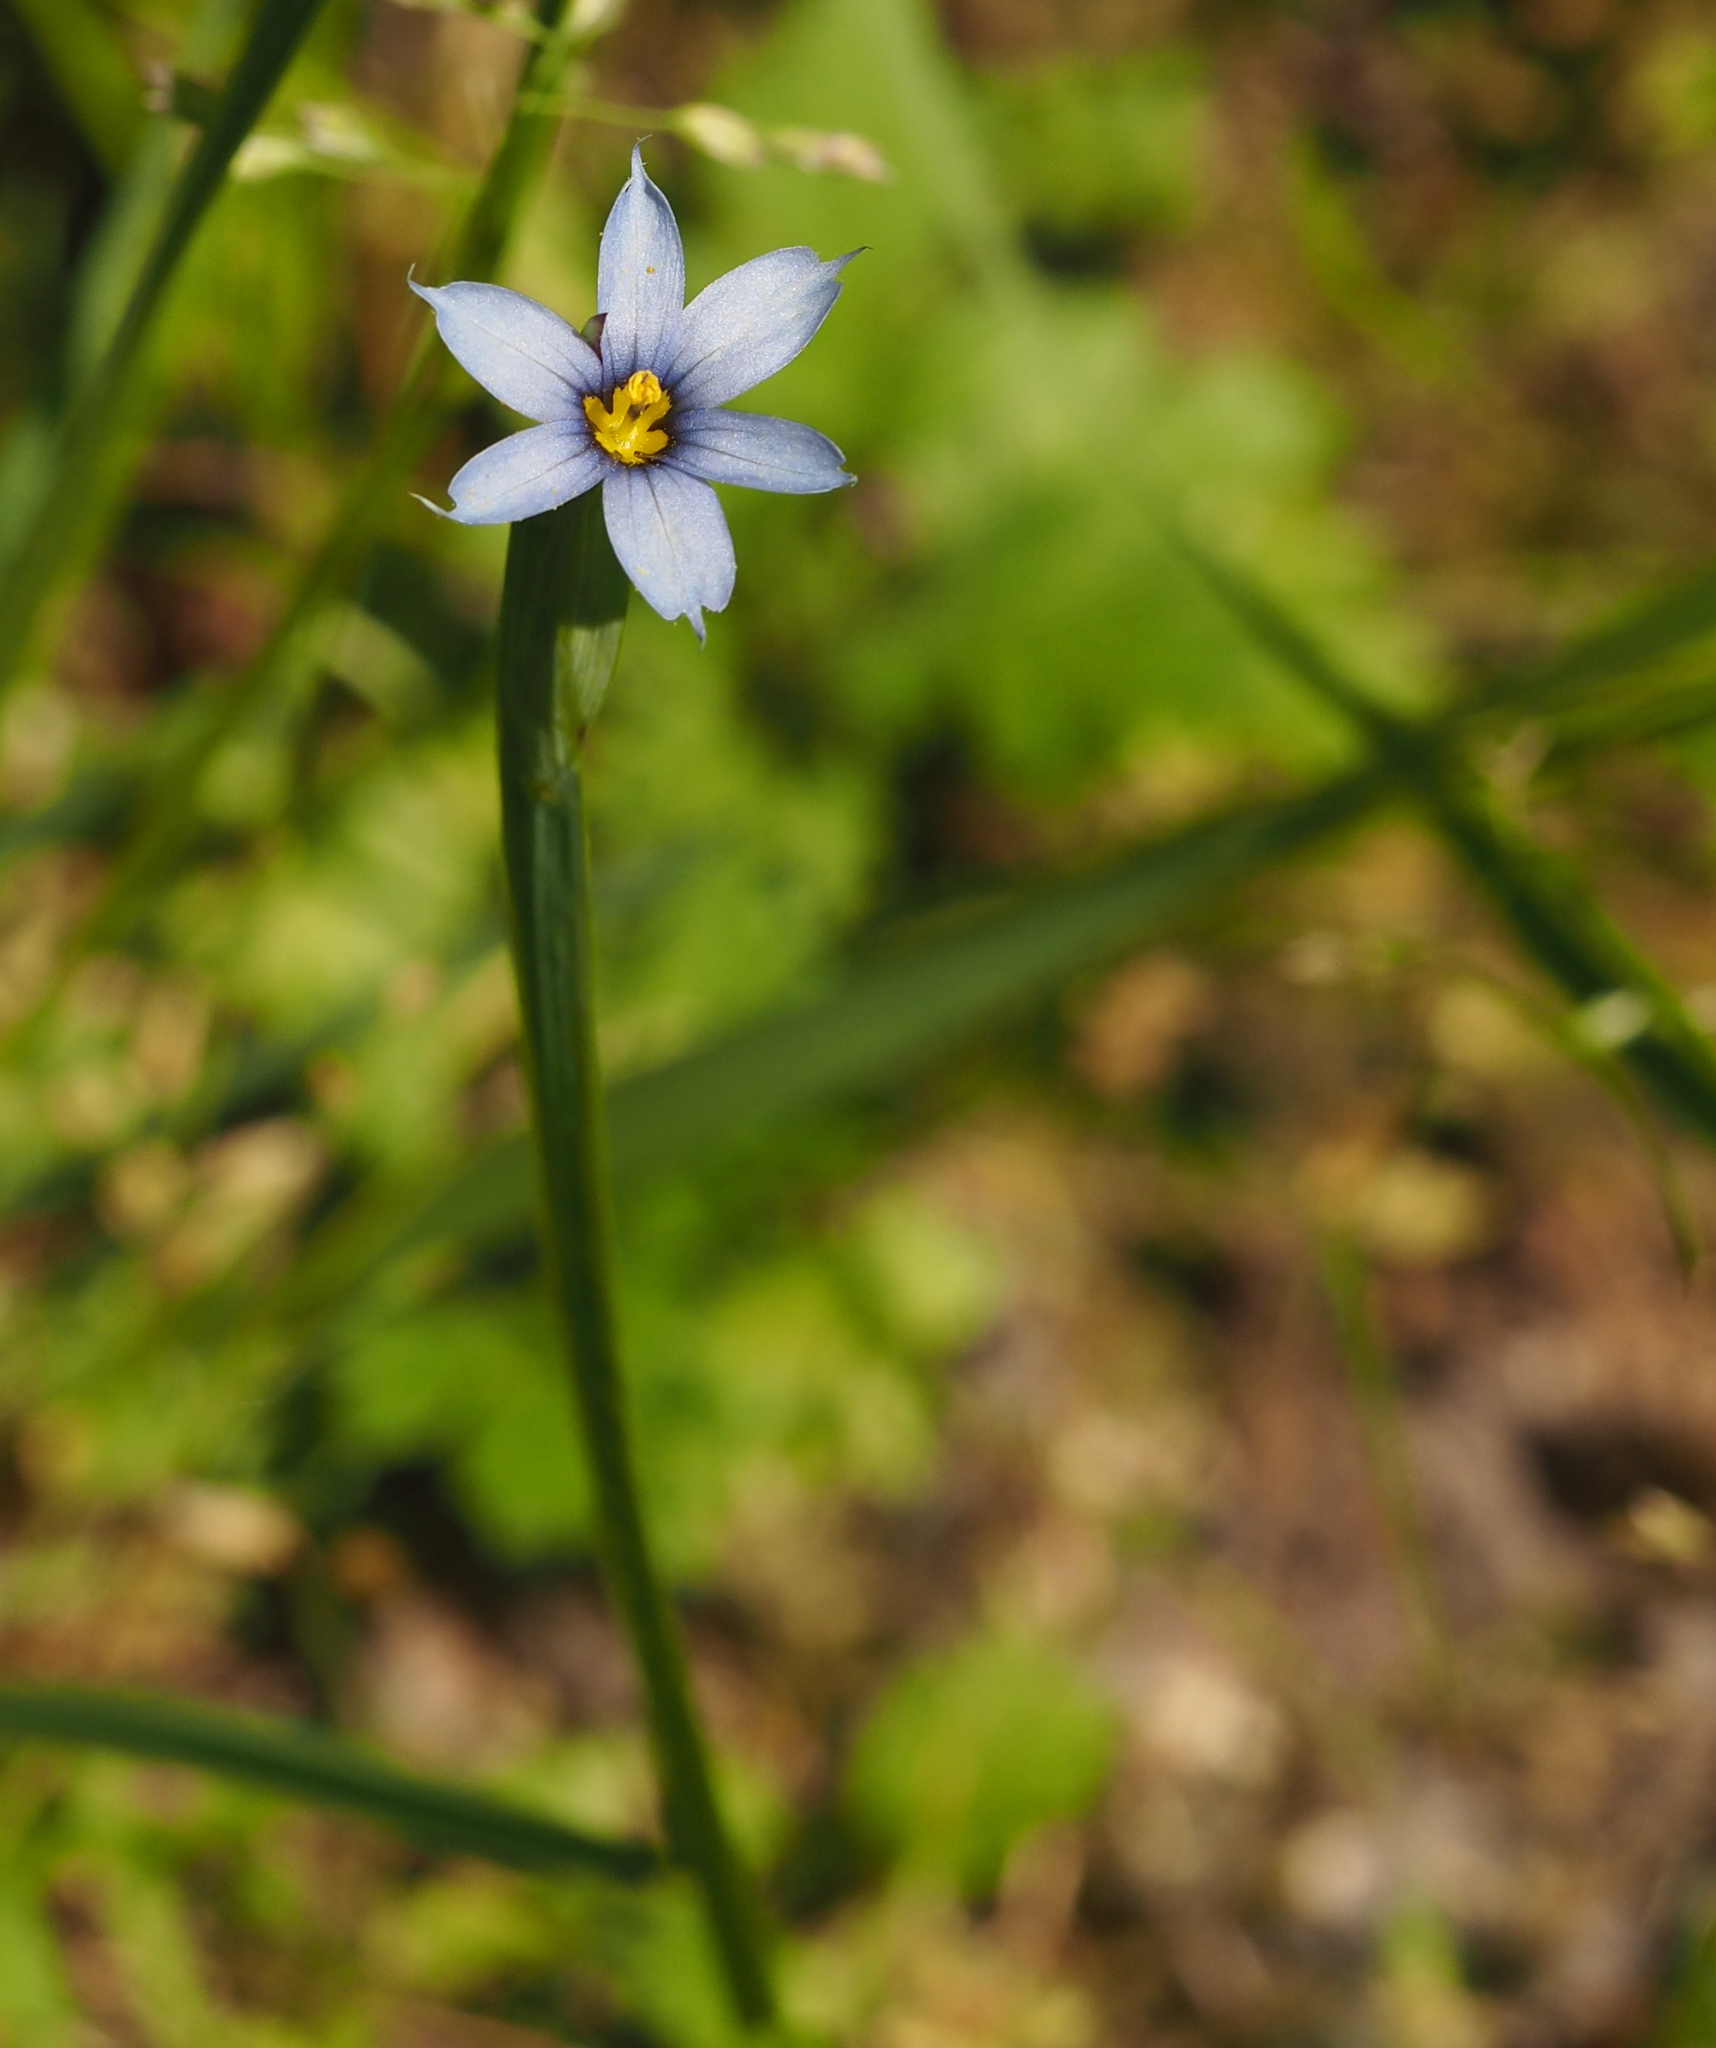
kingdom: Plantae
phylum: Tracheophyta
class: Liliopsida
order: Asparagales
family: Iridaceae
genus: Sisyrinchium
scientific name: Sisyrinchium angustifolium
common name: Narrow-leaf blue-eyed-grass
